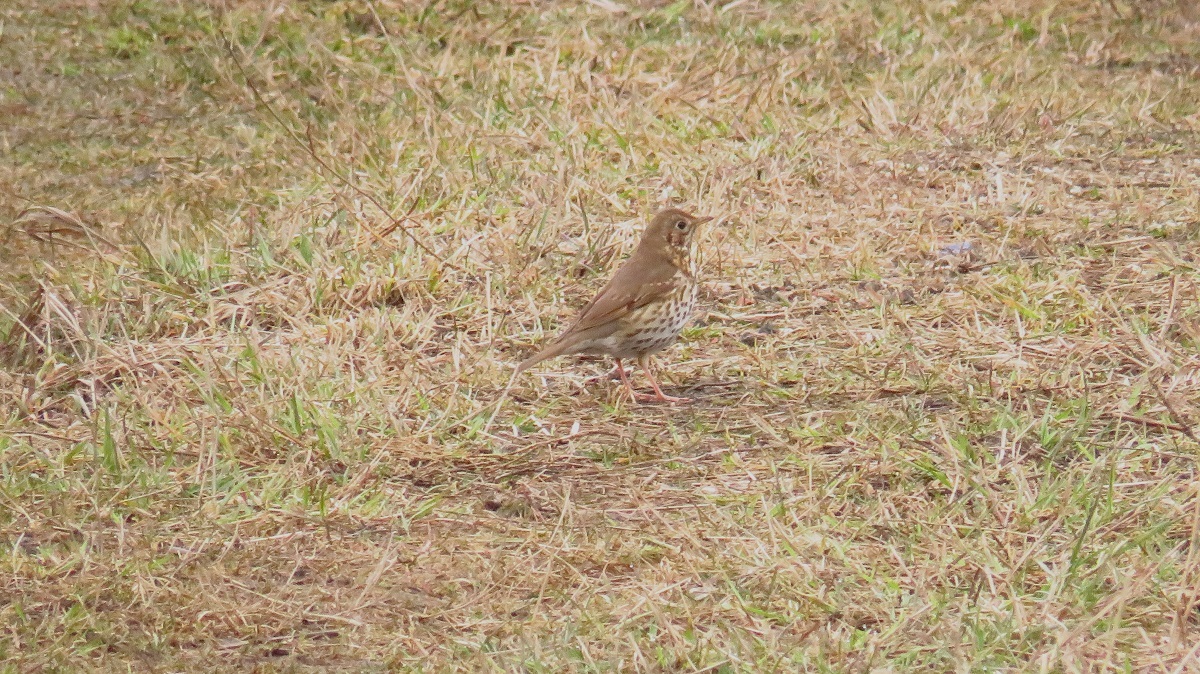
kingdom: Animalia
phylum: Chordata
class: Aves
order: Passeriformes
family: Turdidae
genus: Turdus
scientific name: Turdus philomelos
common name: Song thrush
